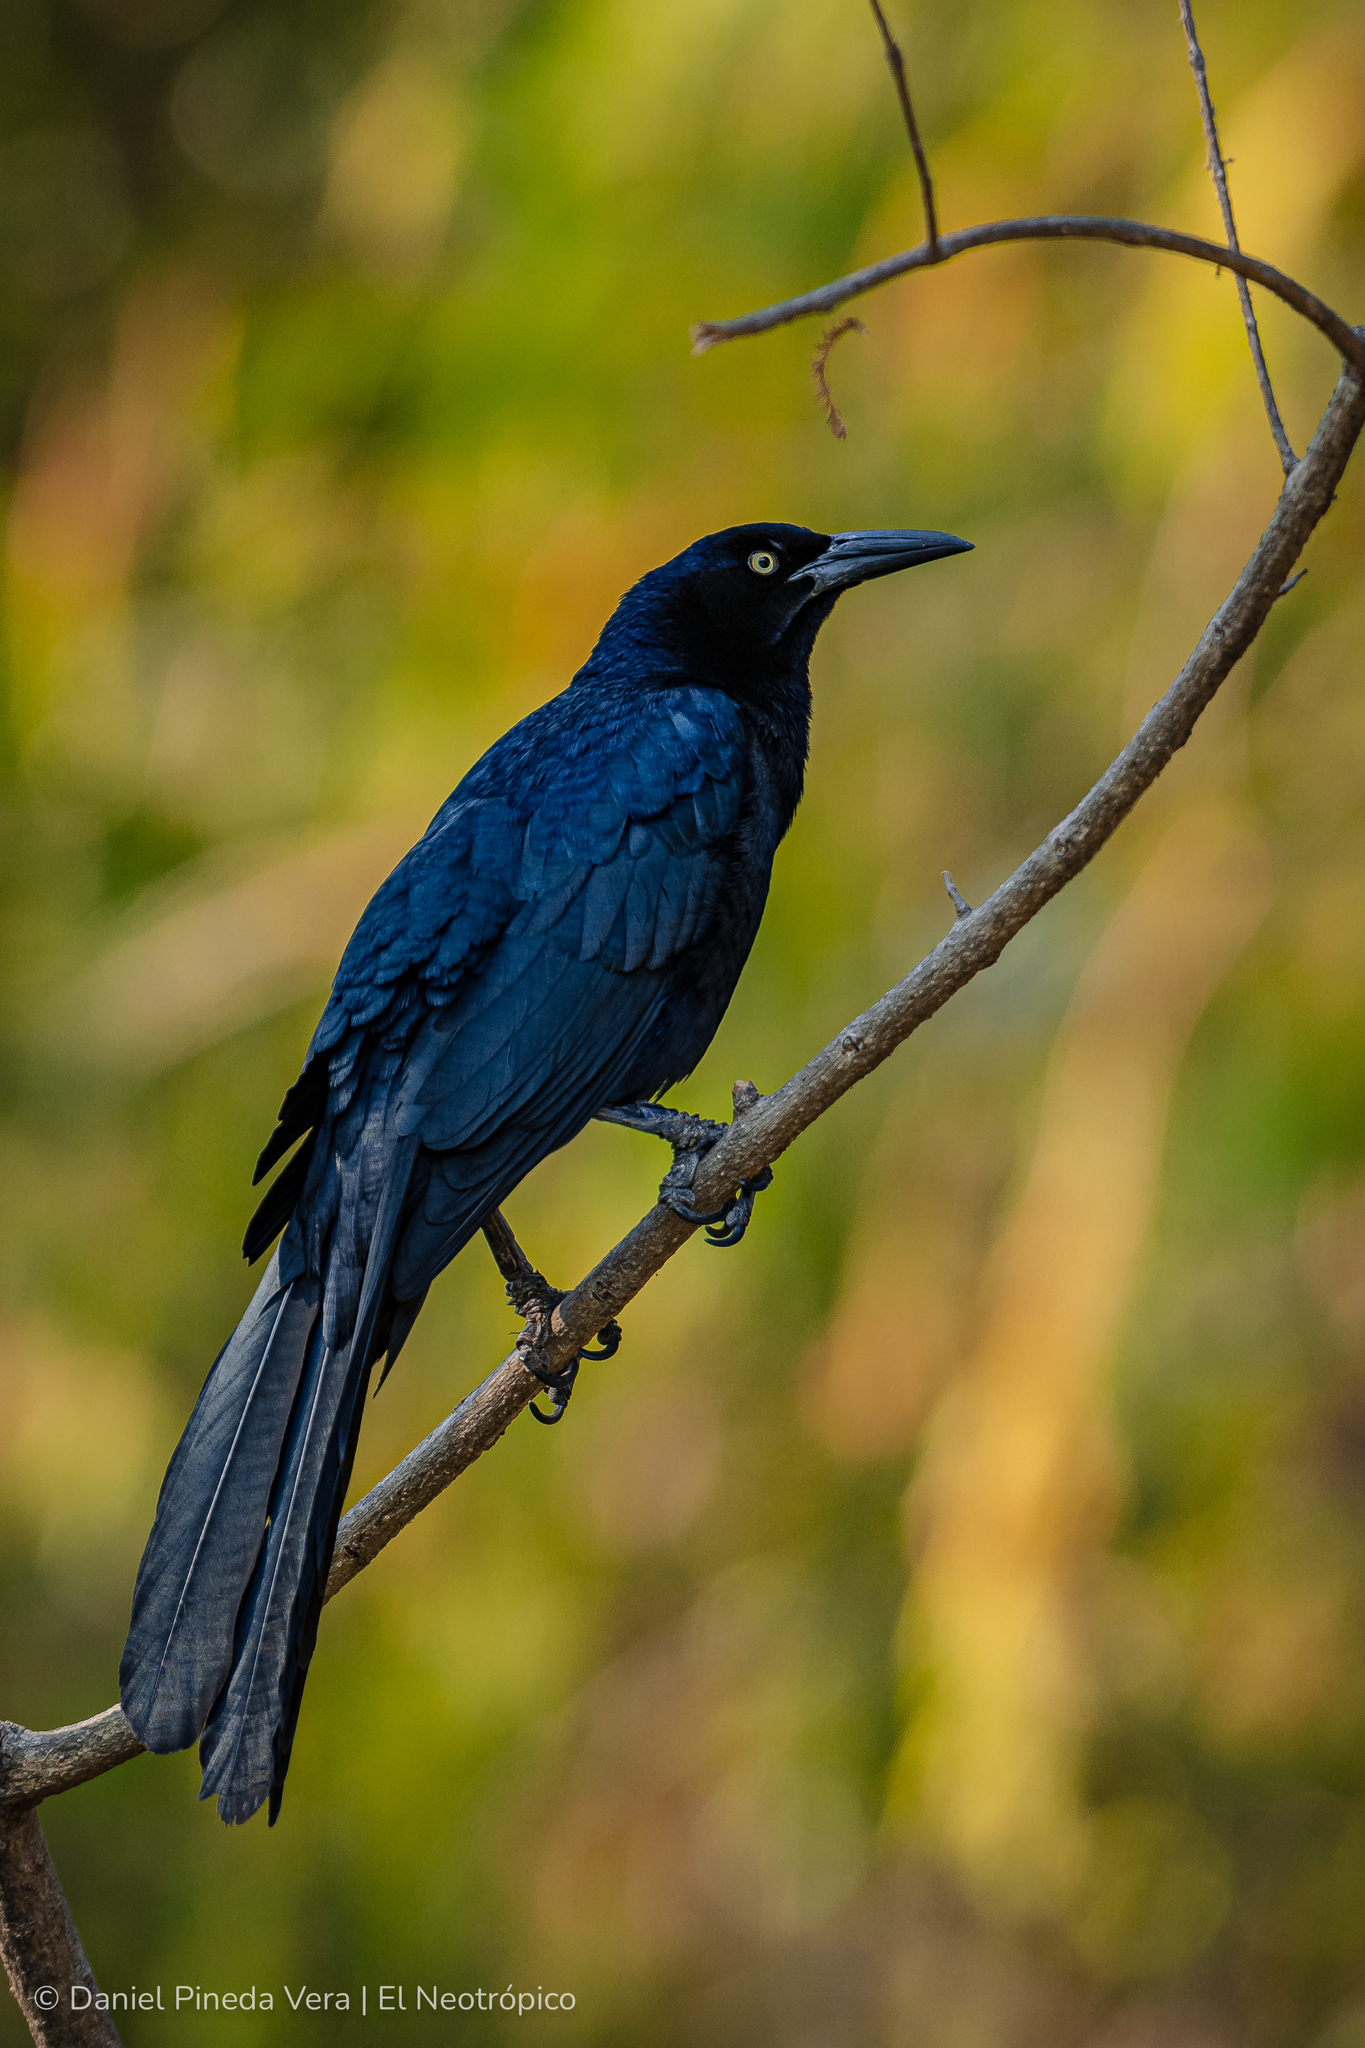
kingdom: Animalia
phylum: Chordata
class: Aves
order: Passeriformes
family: Icteridae
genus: Quiscalus
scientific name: Quiscalus mexicanus
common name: Great-tailed grackle
